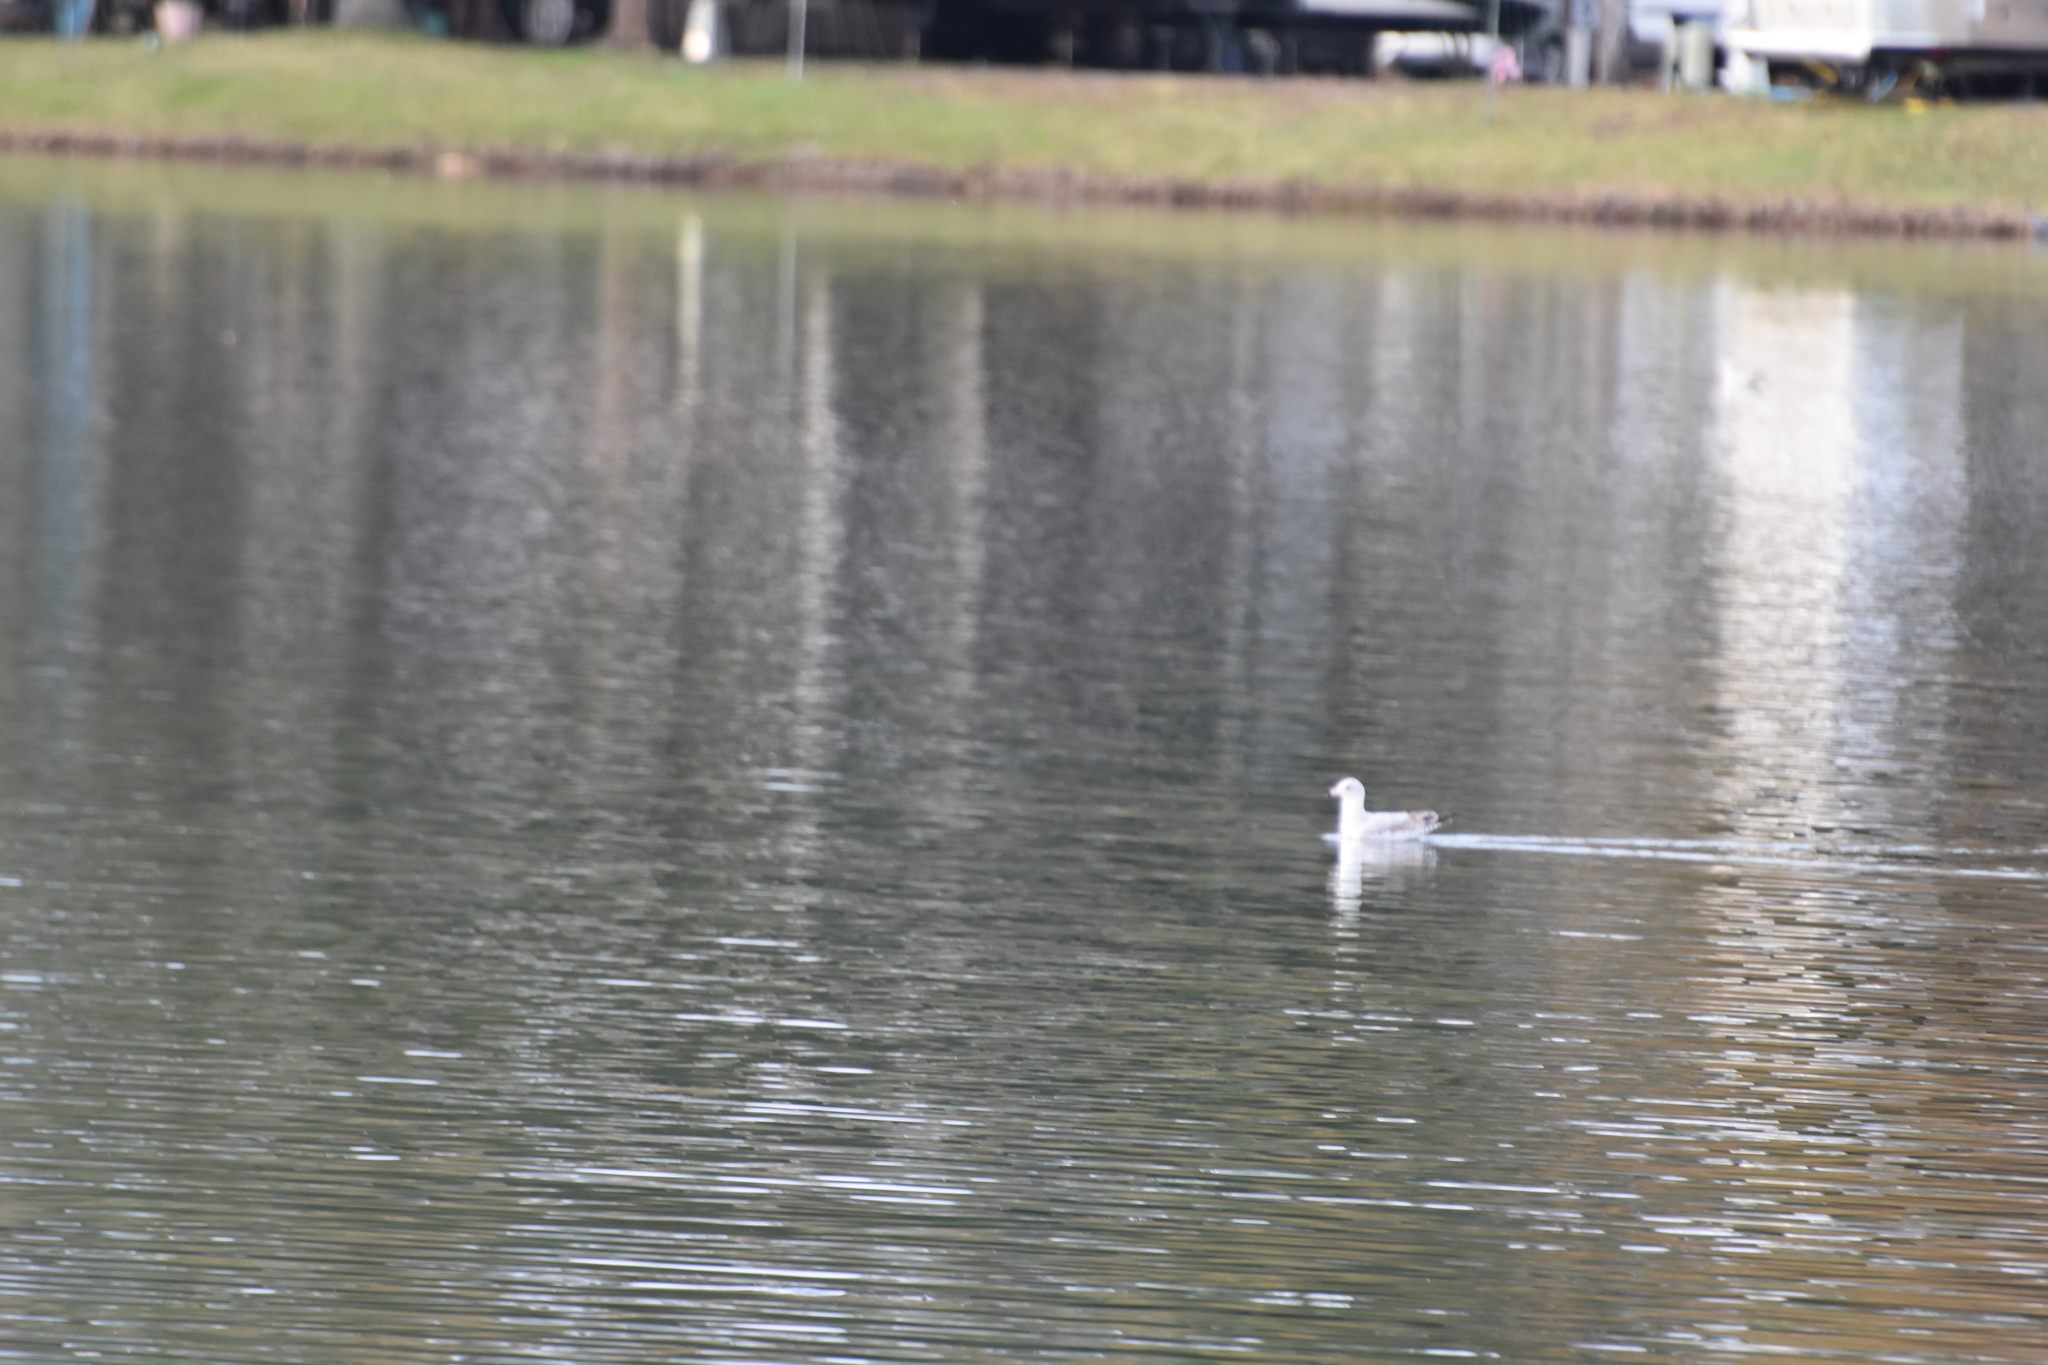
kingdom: Animalia
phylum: Chordata
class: Aves
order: Charadriiformes
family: Laridae
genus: Larus
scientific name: Larus delawarensis
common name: Ring-billed gull
